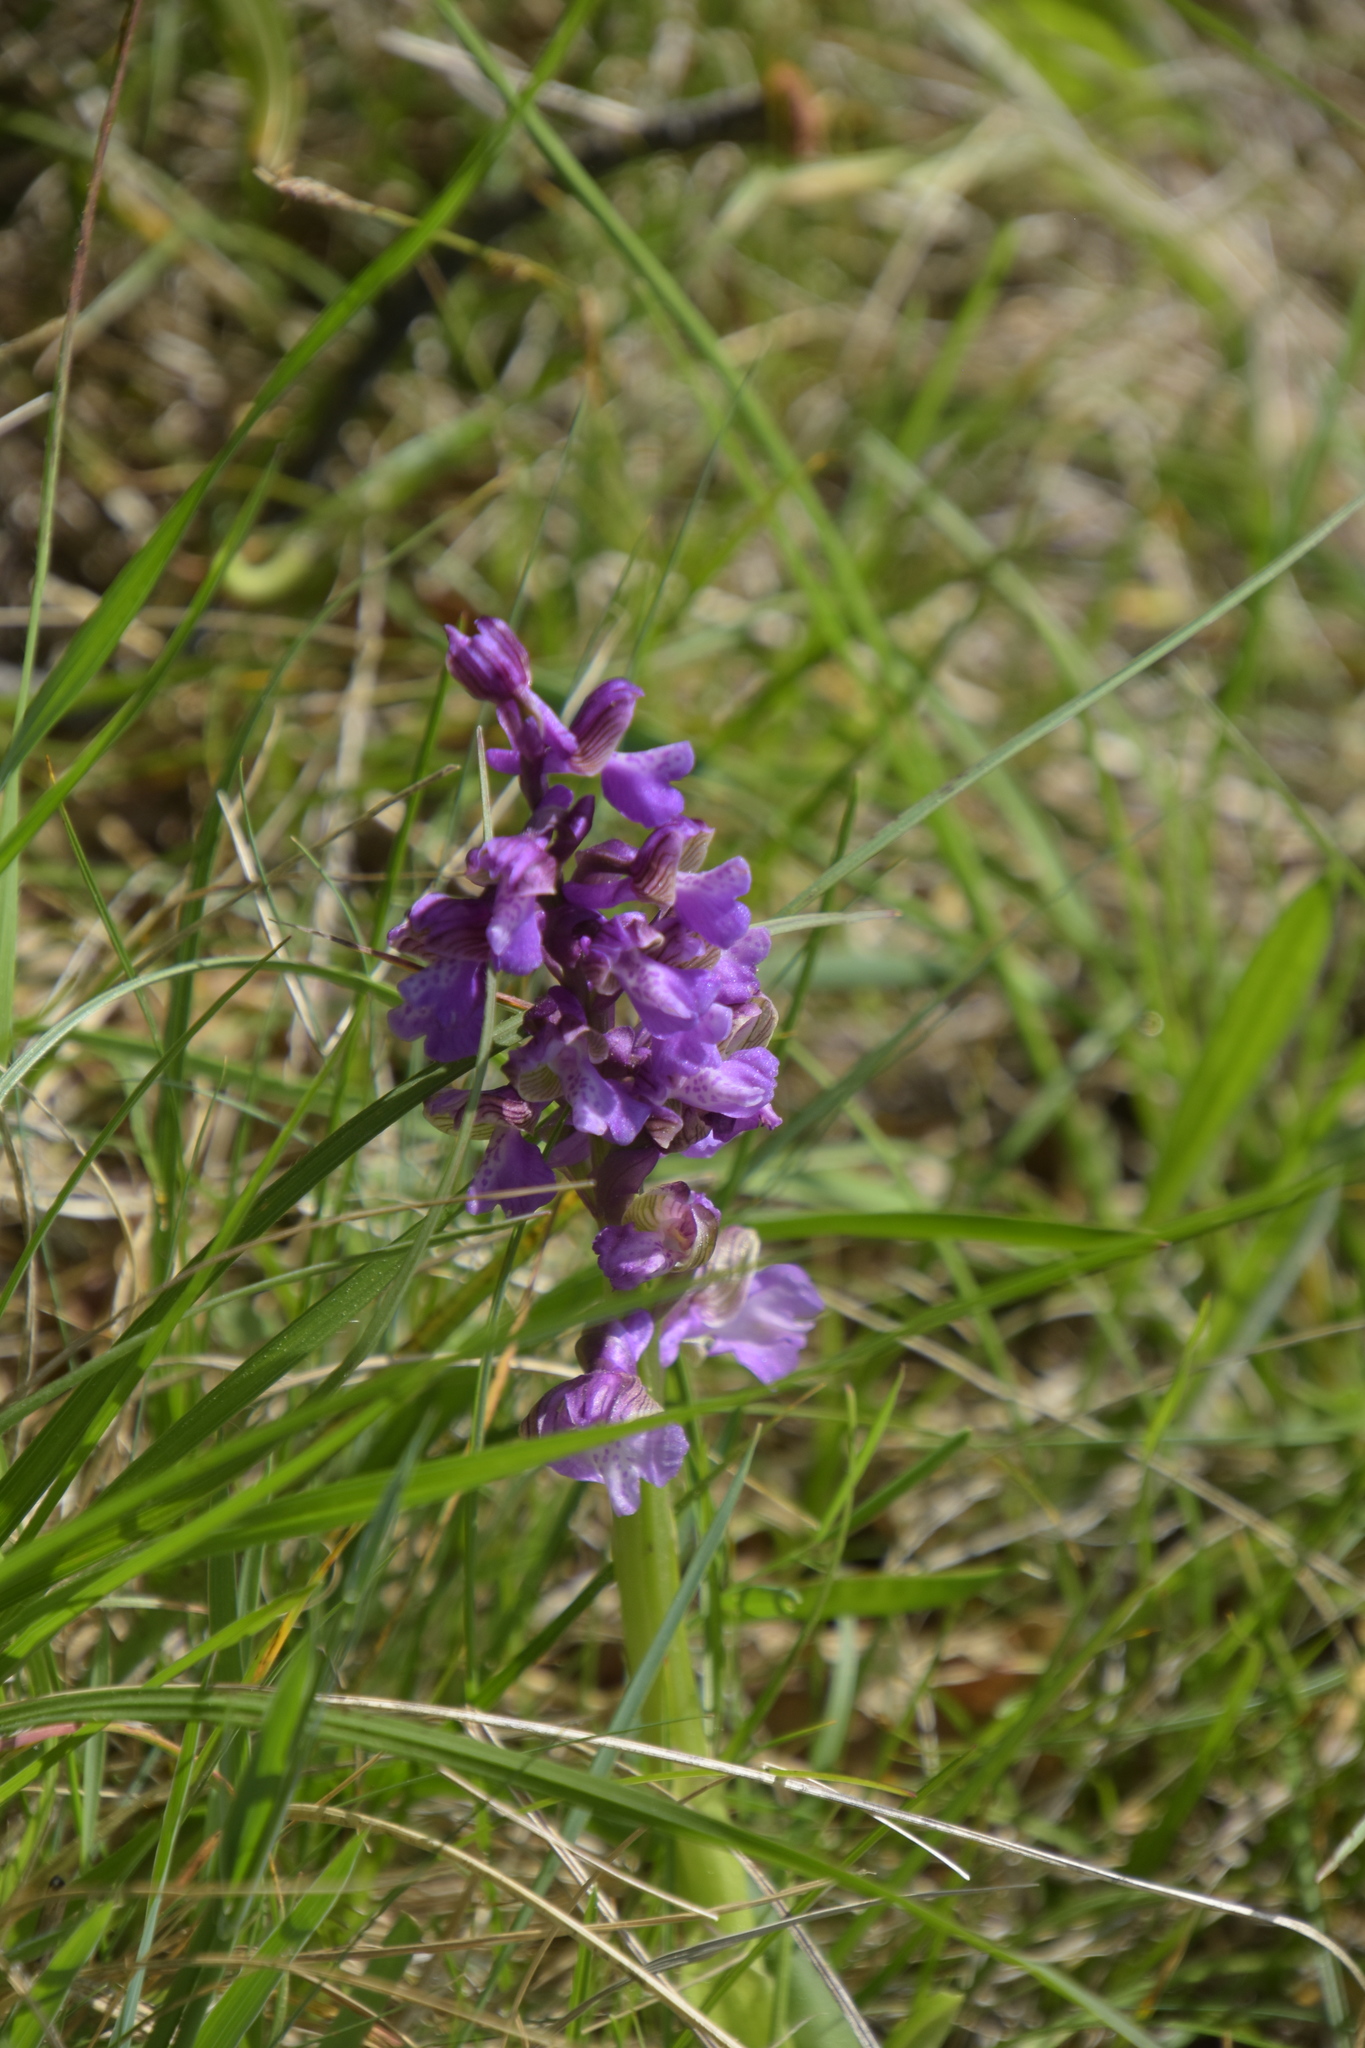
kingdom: Plantae
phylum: Tracheophyta
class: Liliopsida
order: Asparagales
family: Orchidaceae
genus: Anacamptis
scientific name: Anacamptis morio
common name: Green-winged orchid
